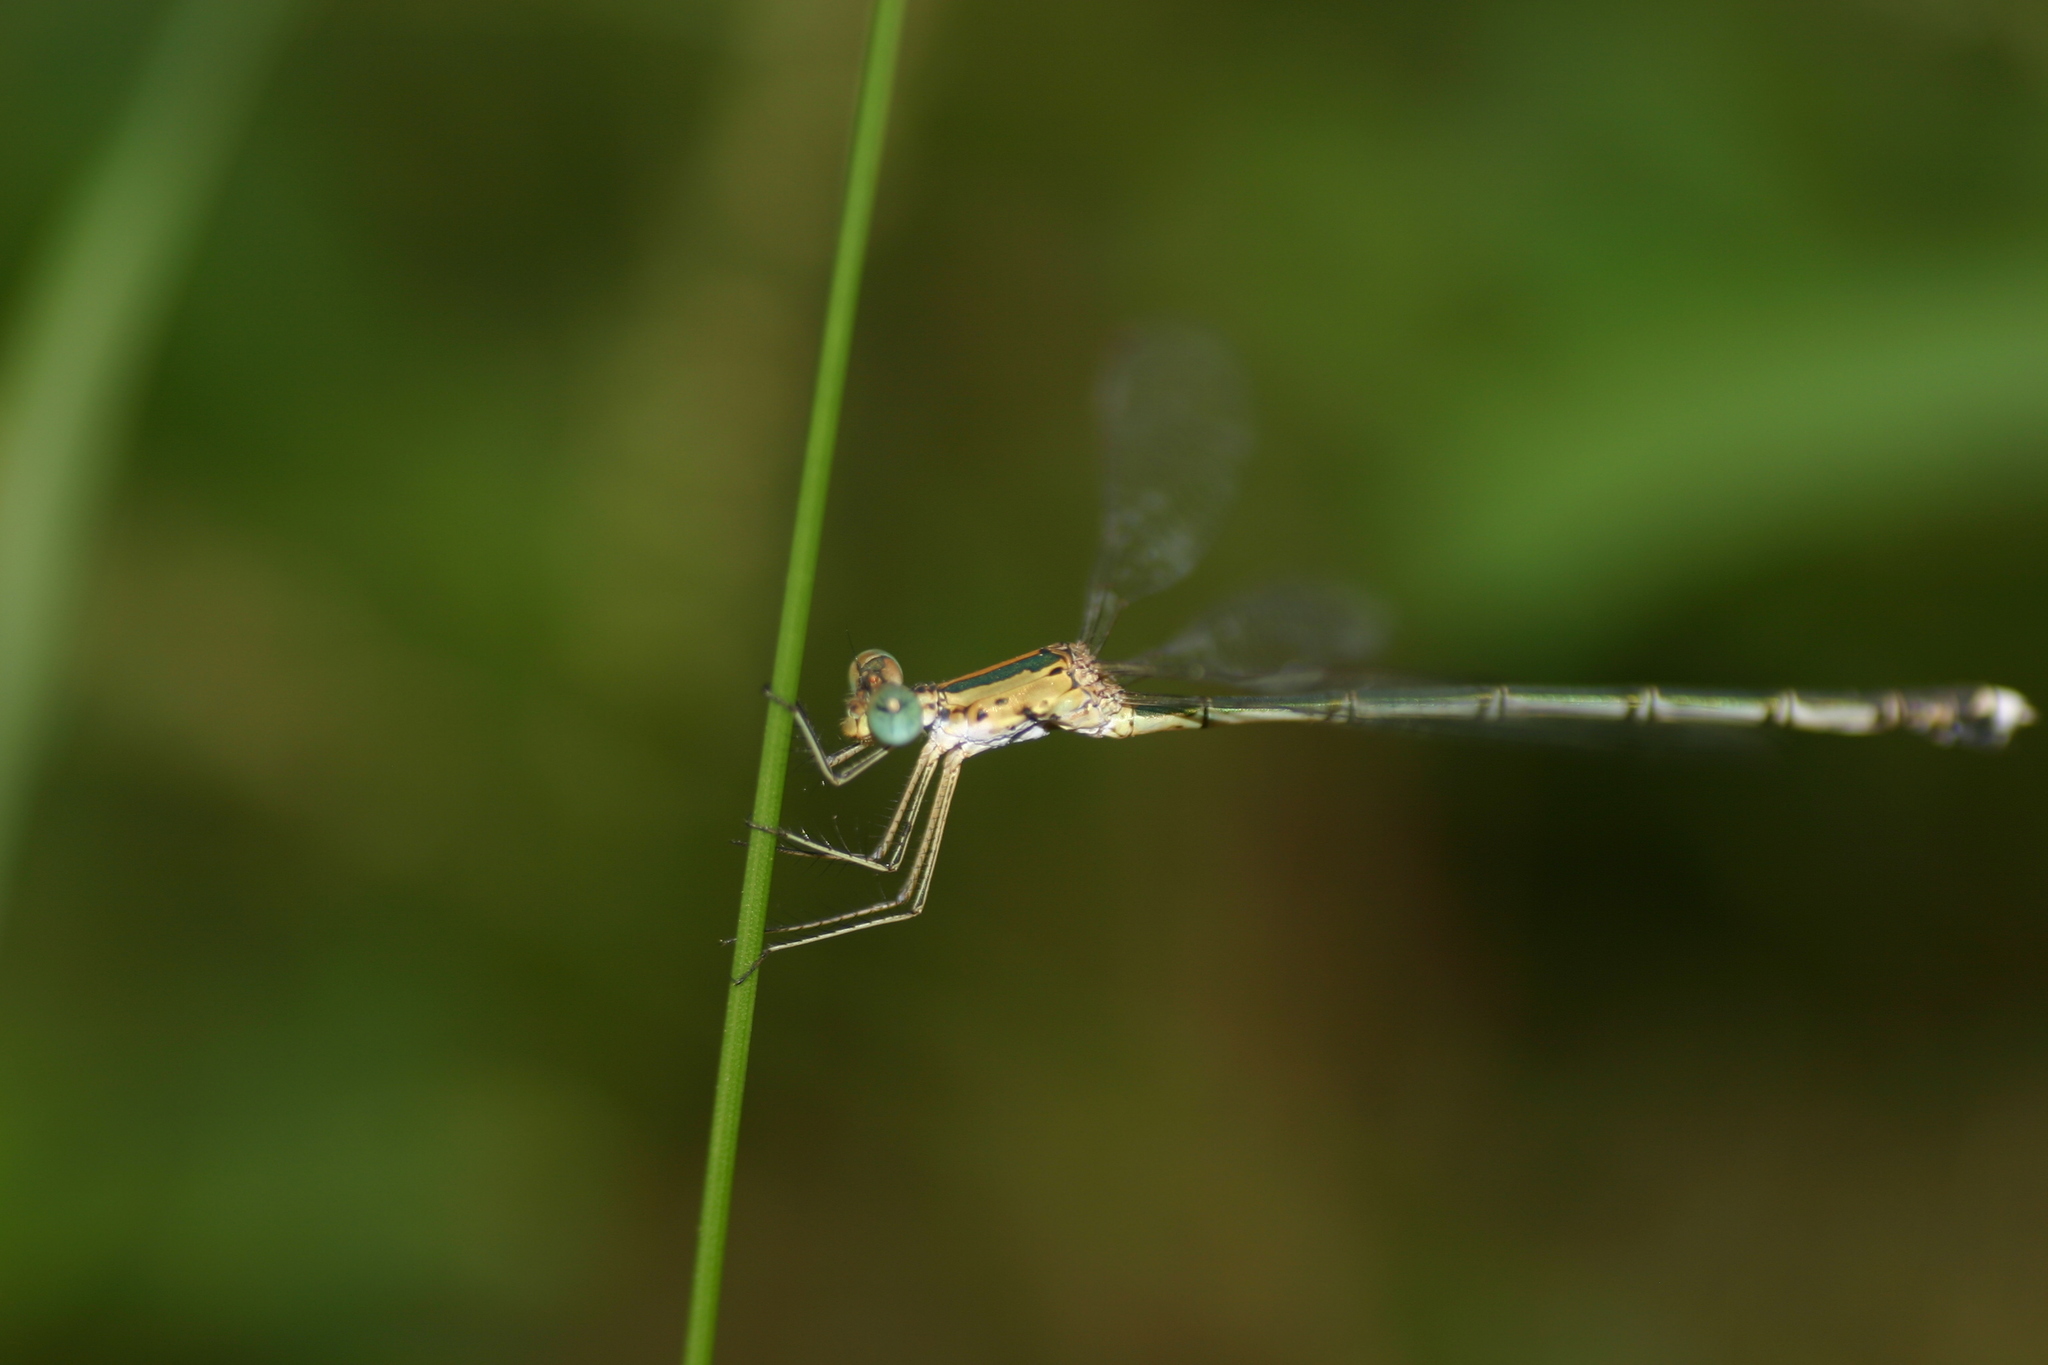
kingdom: Animalia
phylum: Arthropoda
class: Insecta
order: Odonata
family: Lestidae
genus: Lestes
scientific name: Lestes elatus
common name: Emerald spreadwing
